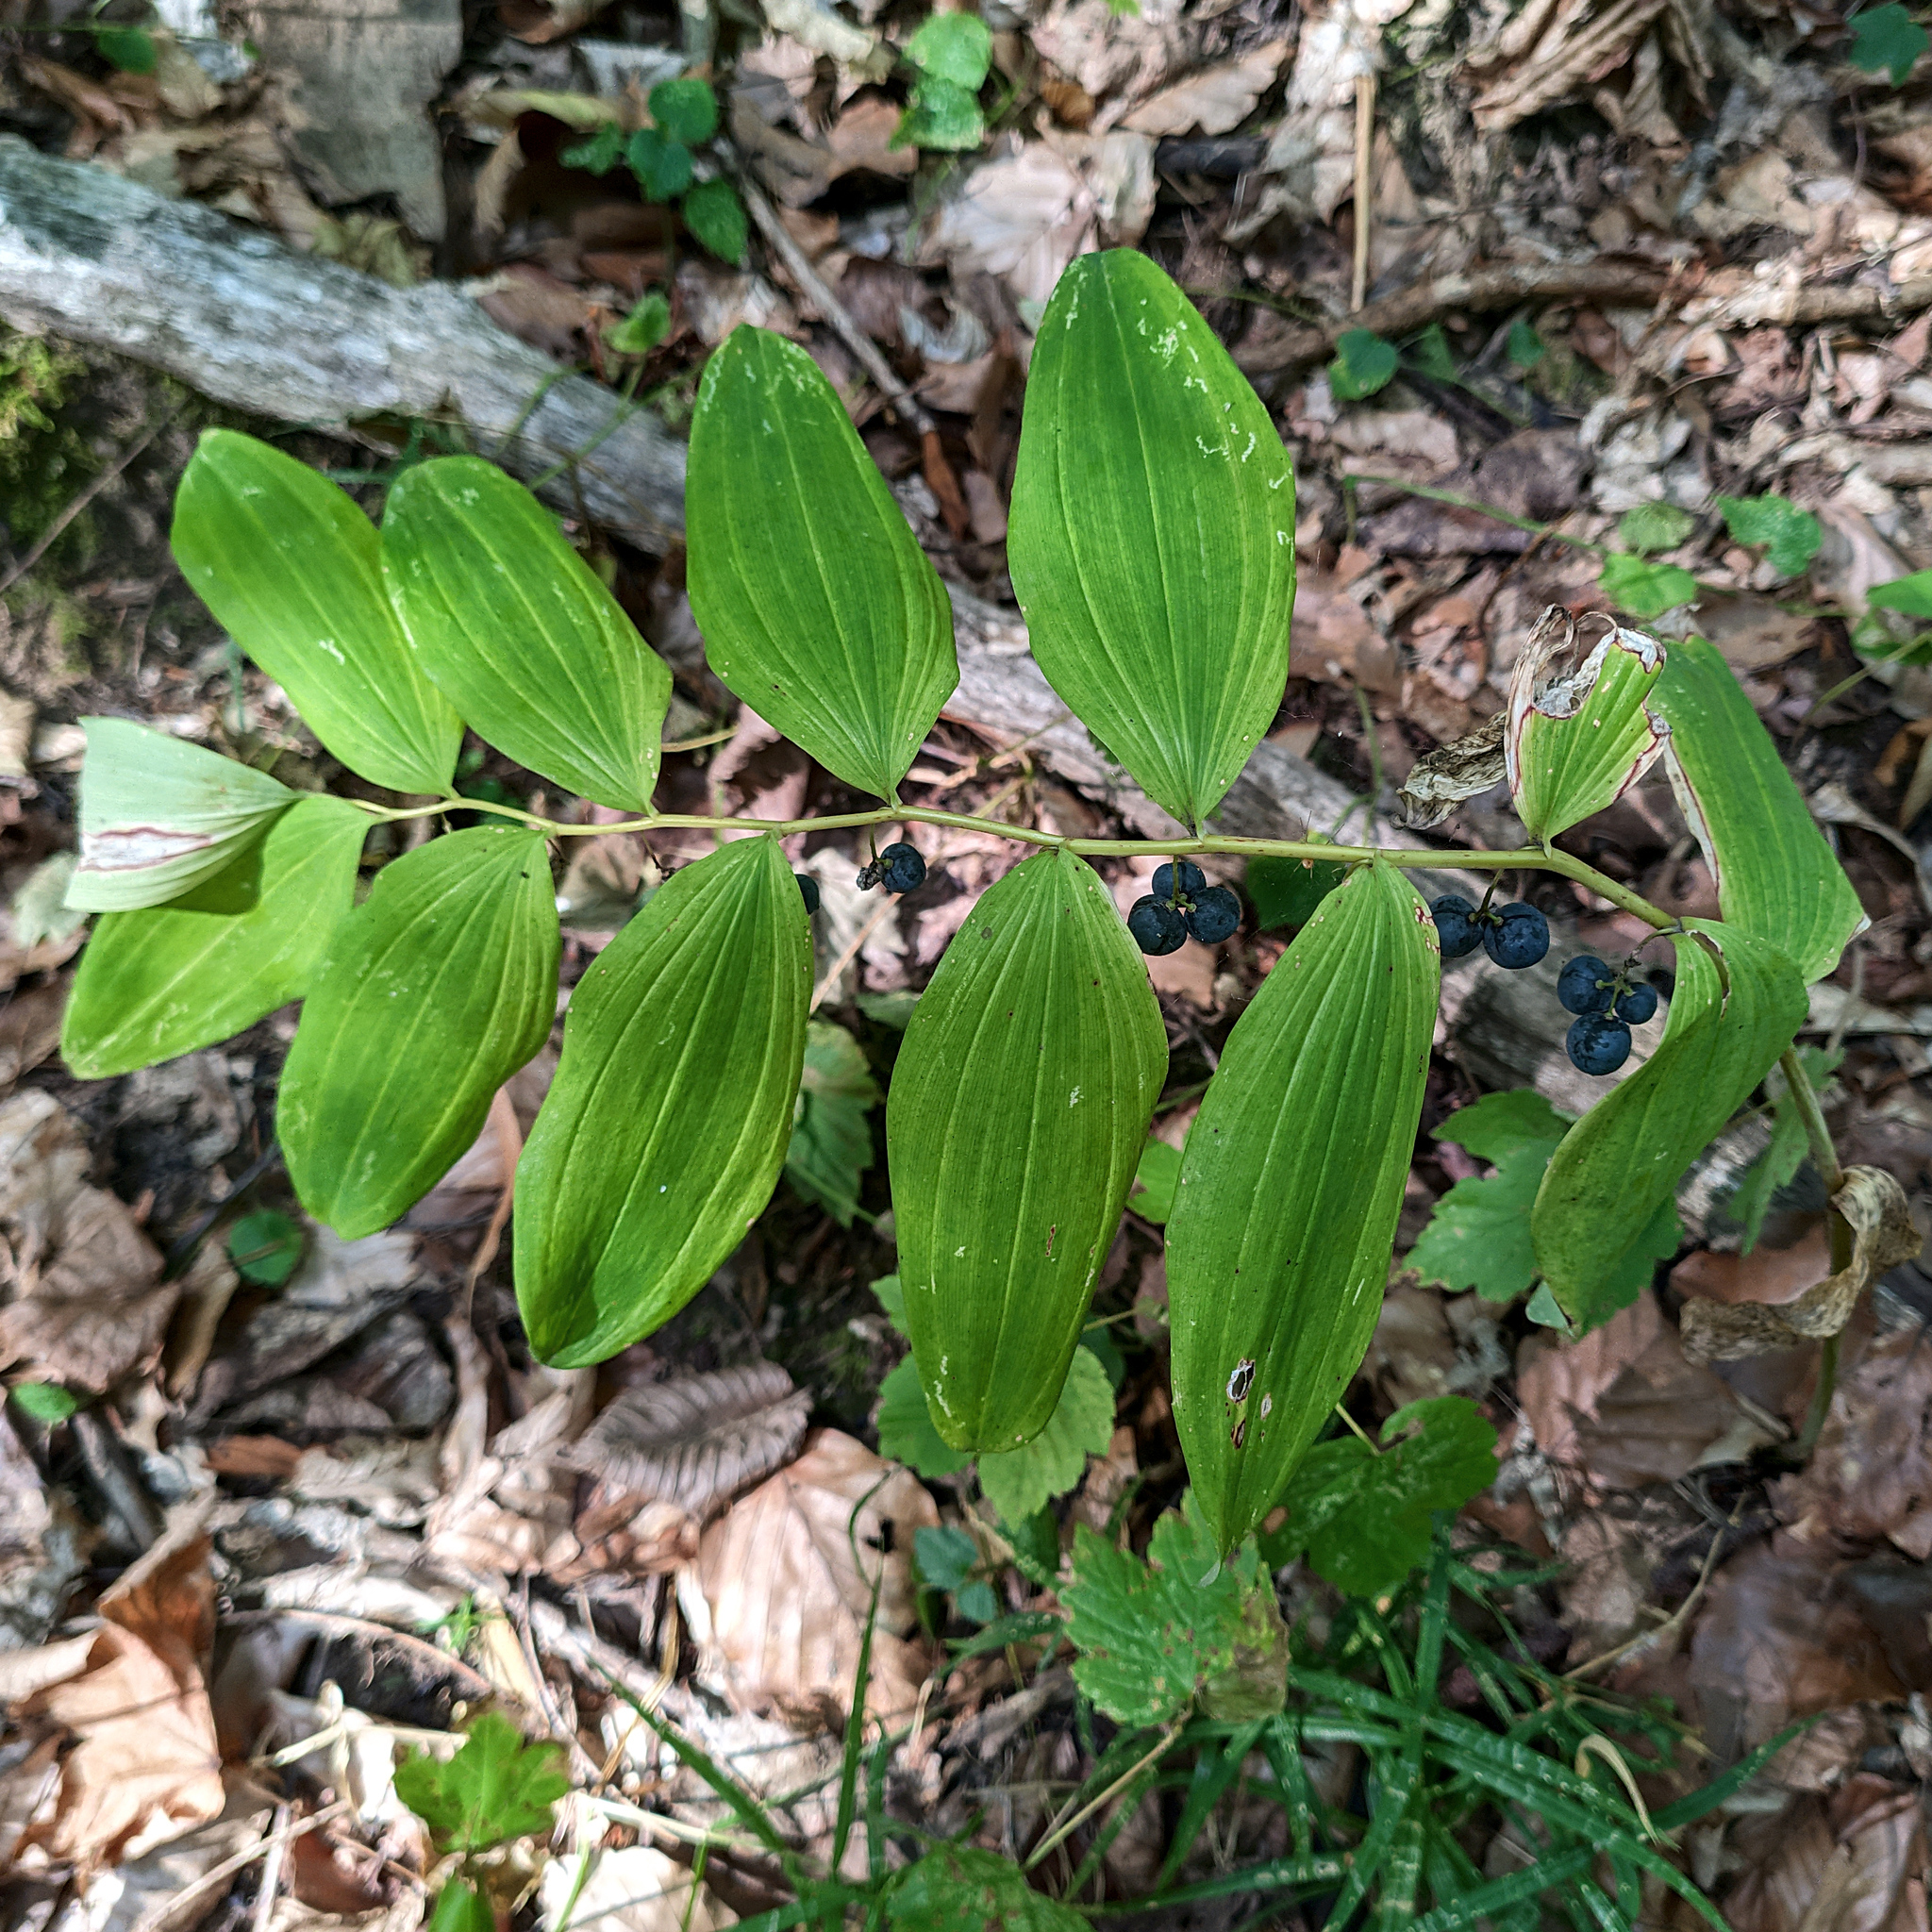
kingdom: Plantae
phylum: Tracheophyta
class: Liliopsida
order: Asparagales
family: Asparagaceae
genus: Polygonatum
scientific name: Polygonatum multiflorum
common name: Solomon's-seal
